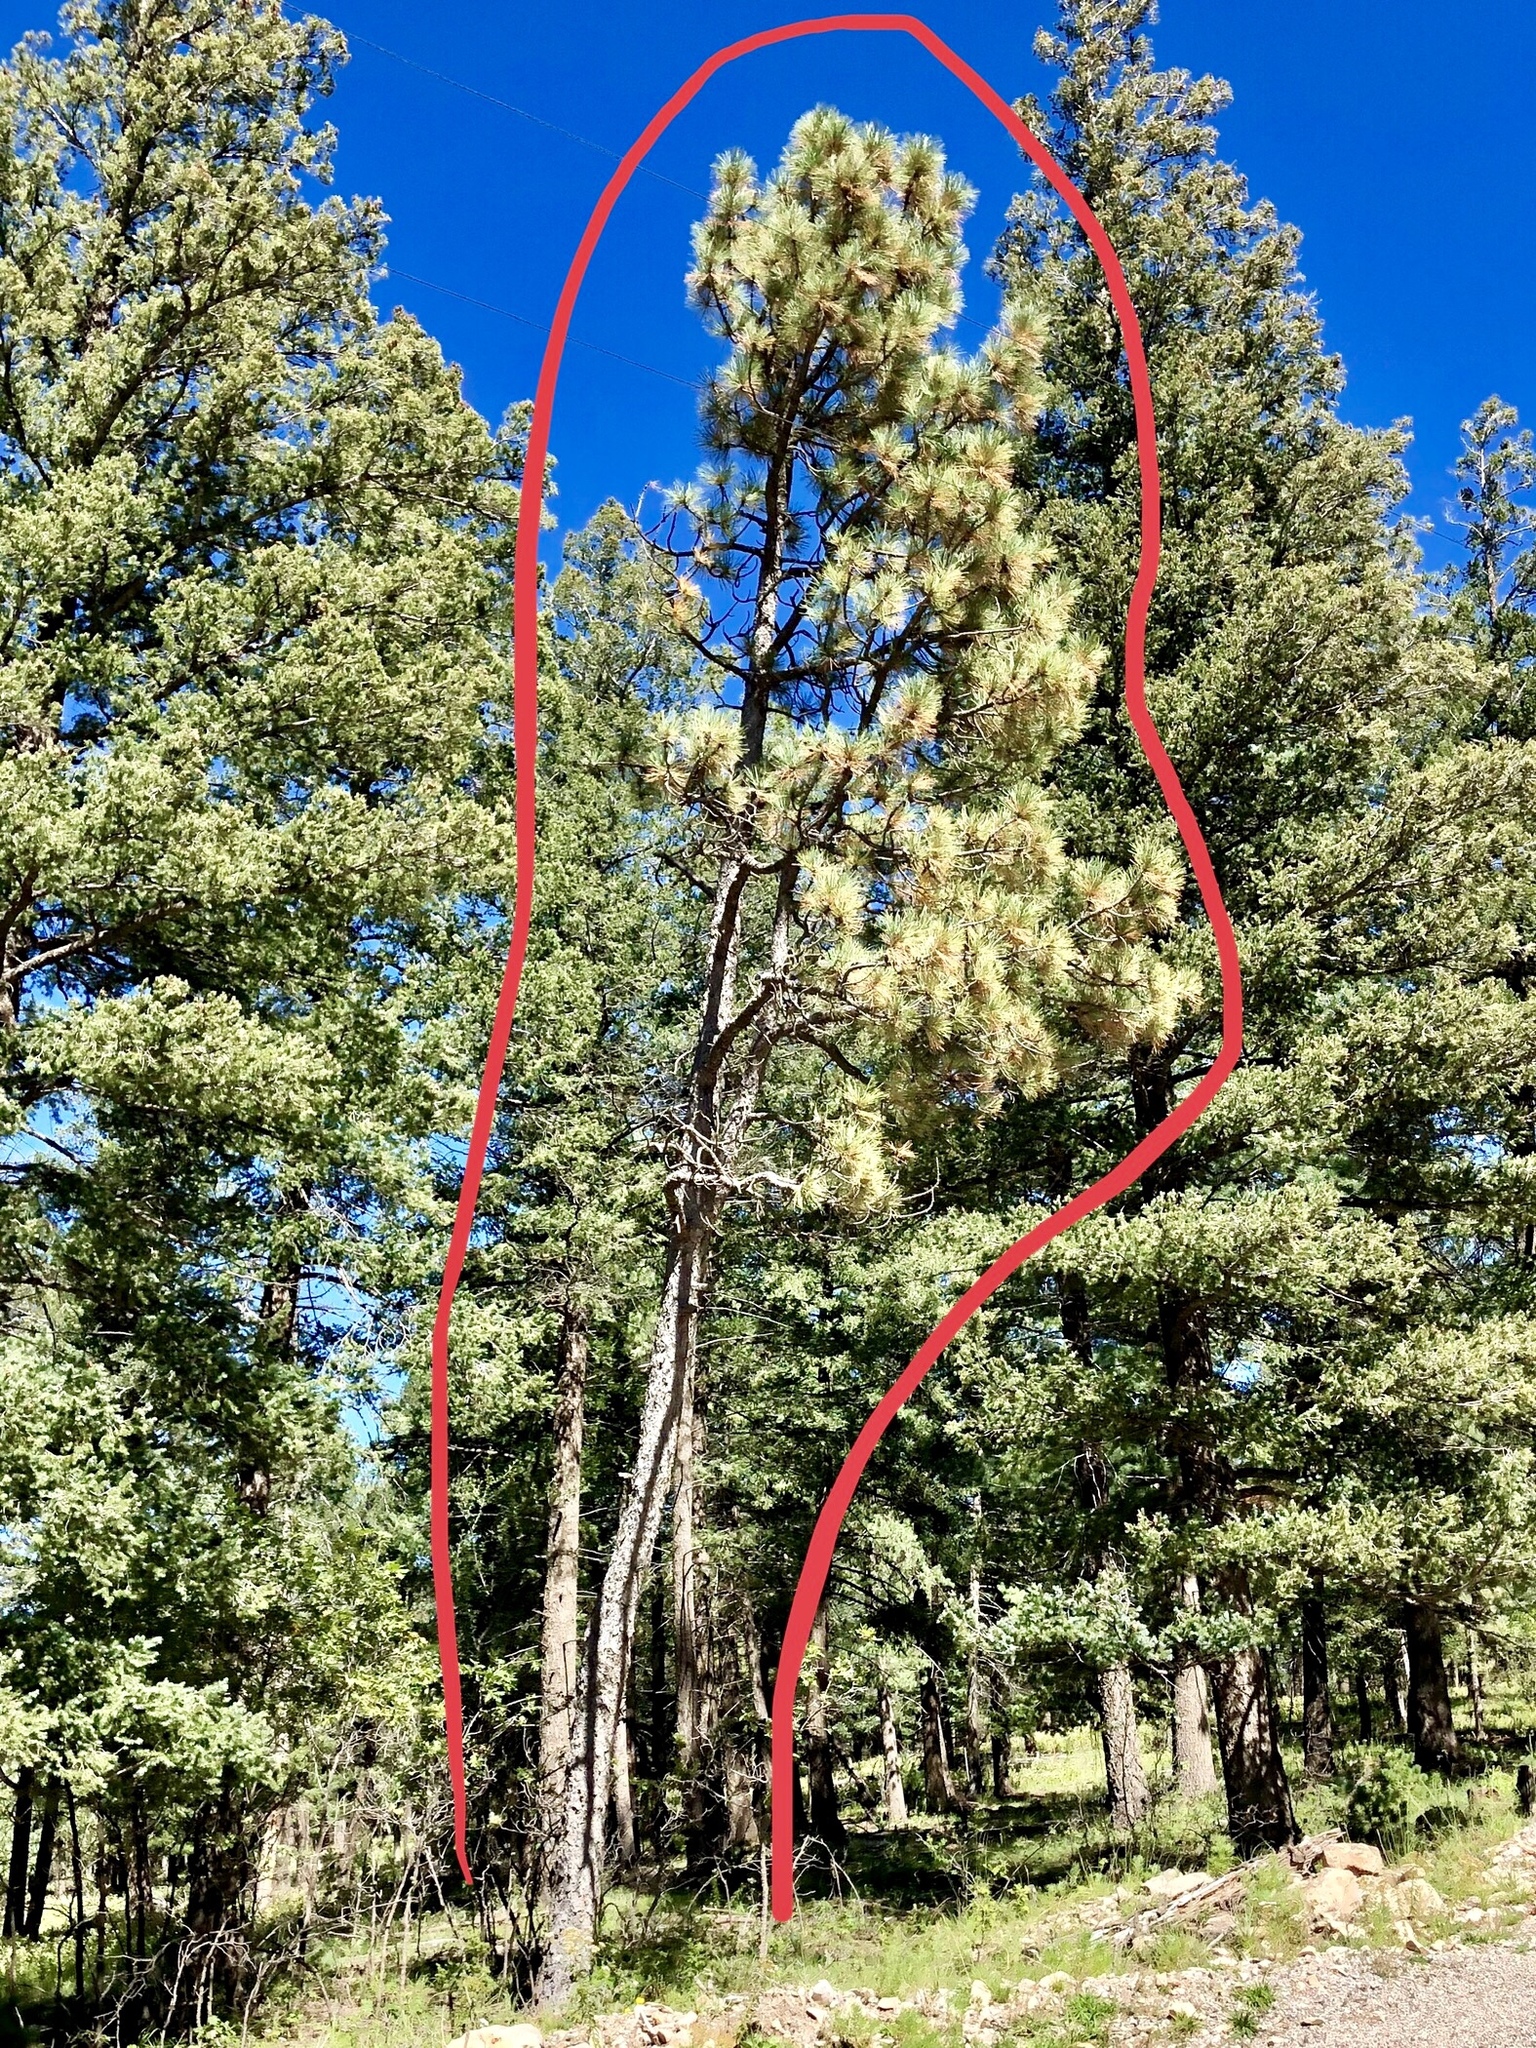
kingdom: Plantae
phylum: Tracheophyta
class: Pinopsida
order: Pinales
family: Pinaceae
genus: Pinus
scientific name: Pinus ponderosa
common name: Western yellow-pine
